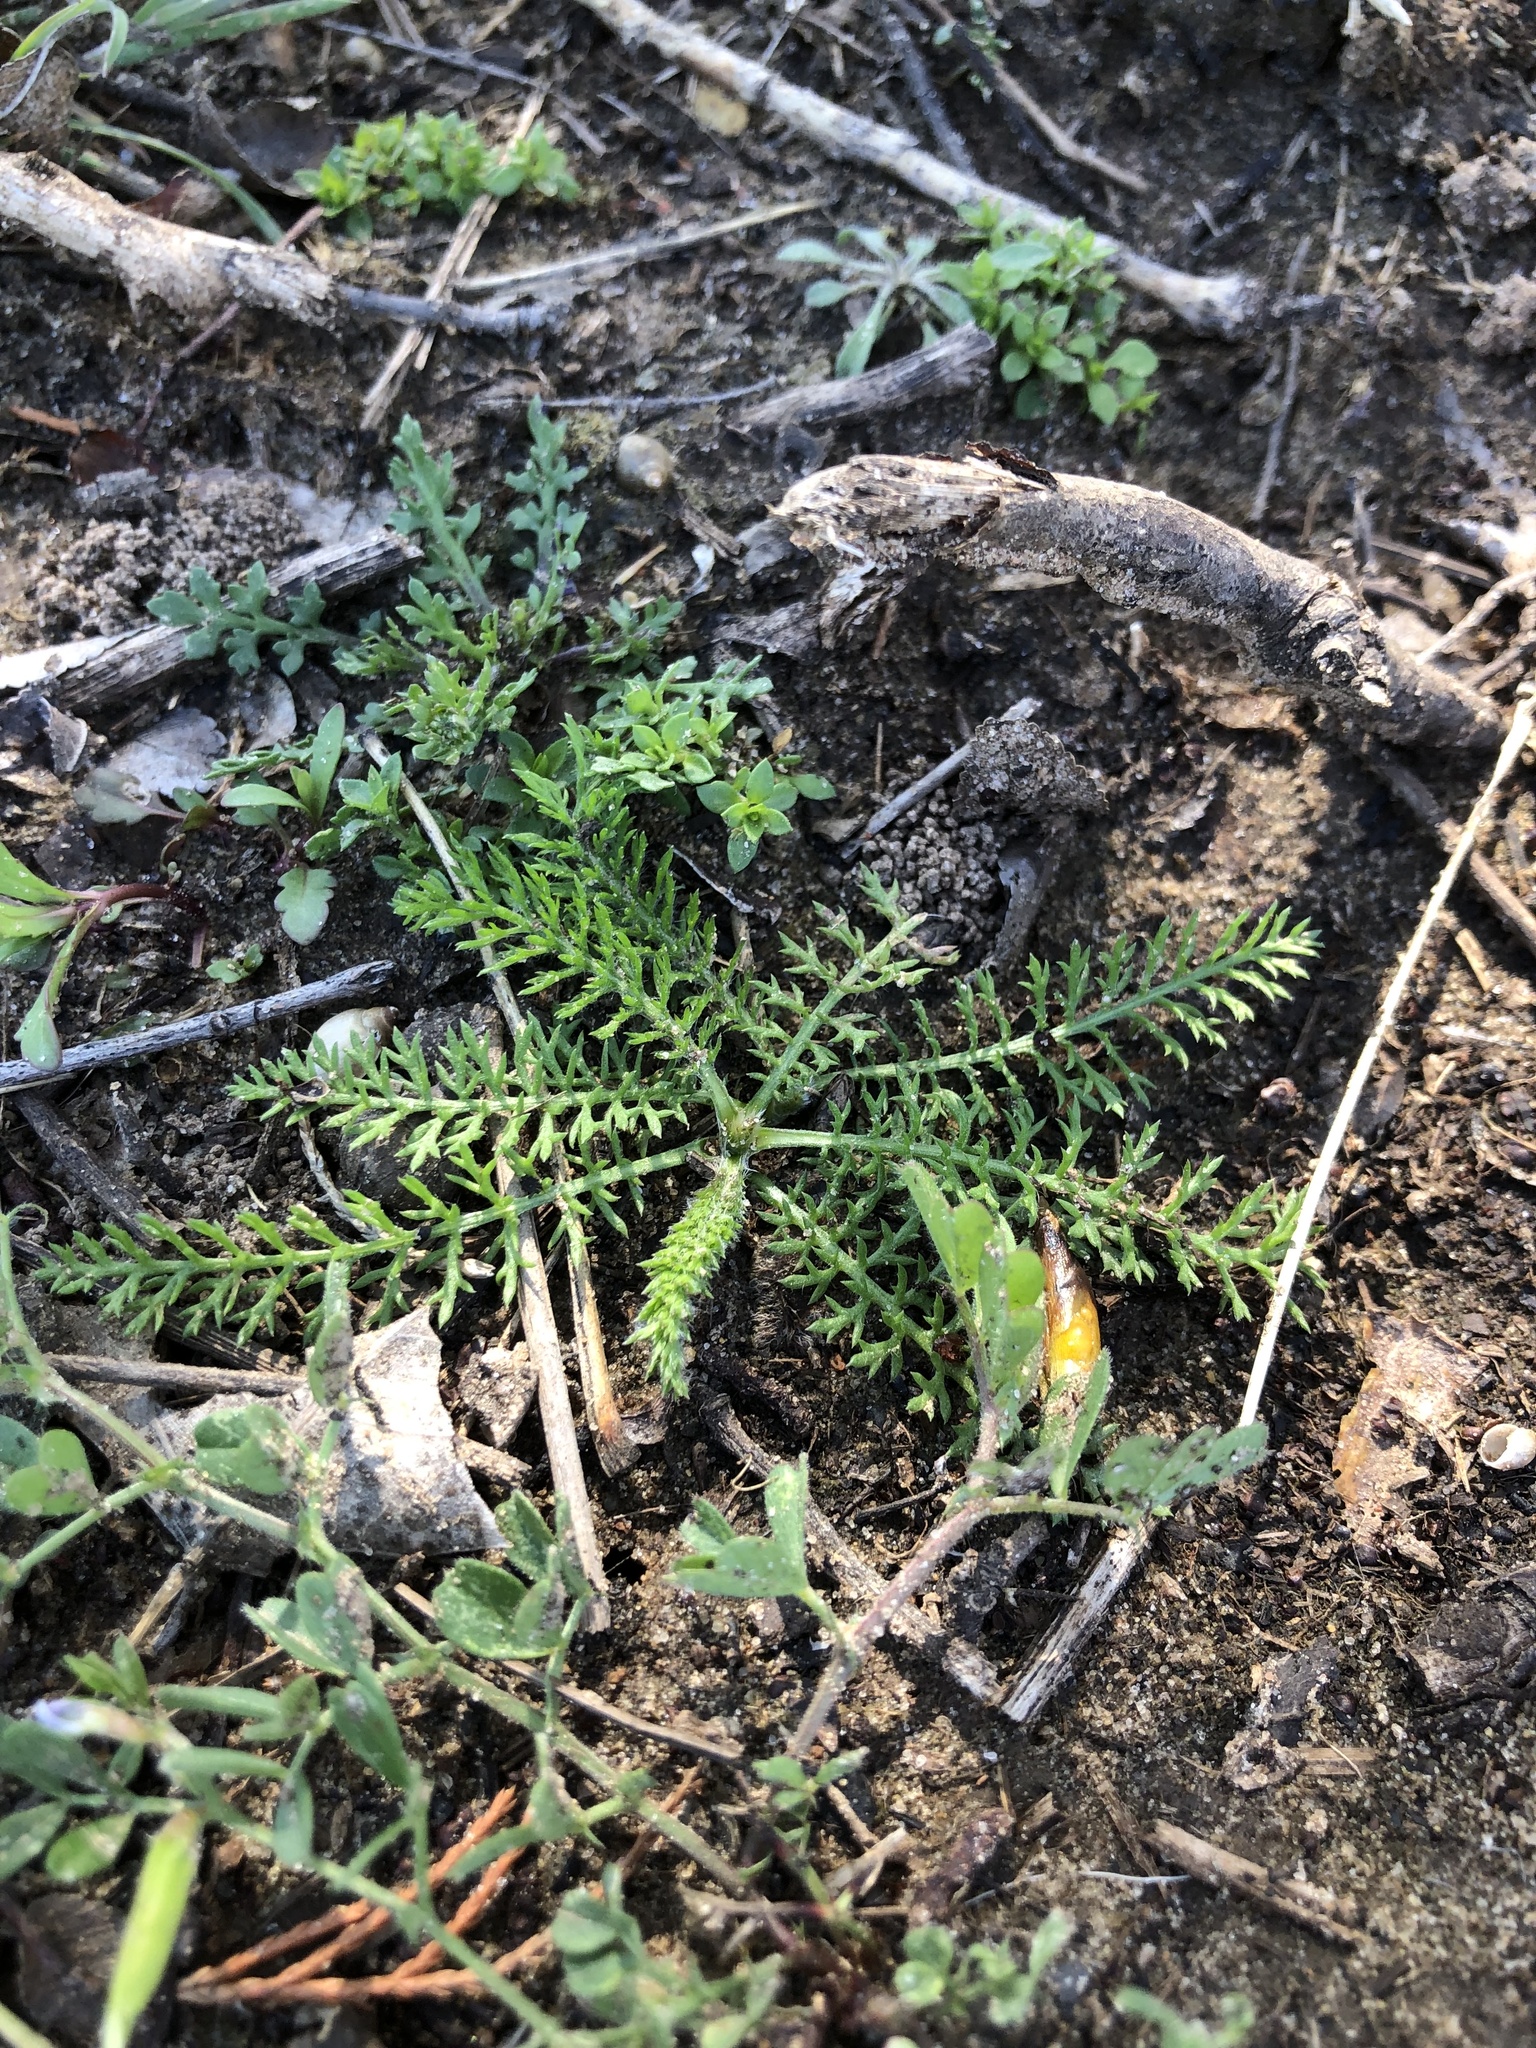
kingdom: Plantae
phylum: Tracheophyta
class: Magnoliopsida
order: Asterales
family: Asteraceae
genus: Achillea
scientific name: Achillea millefolium
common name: Yarrow
